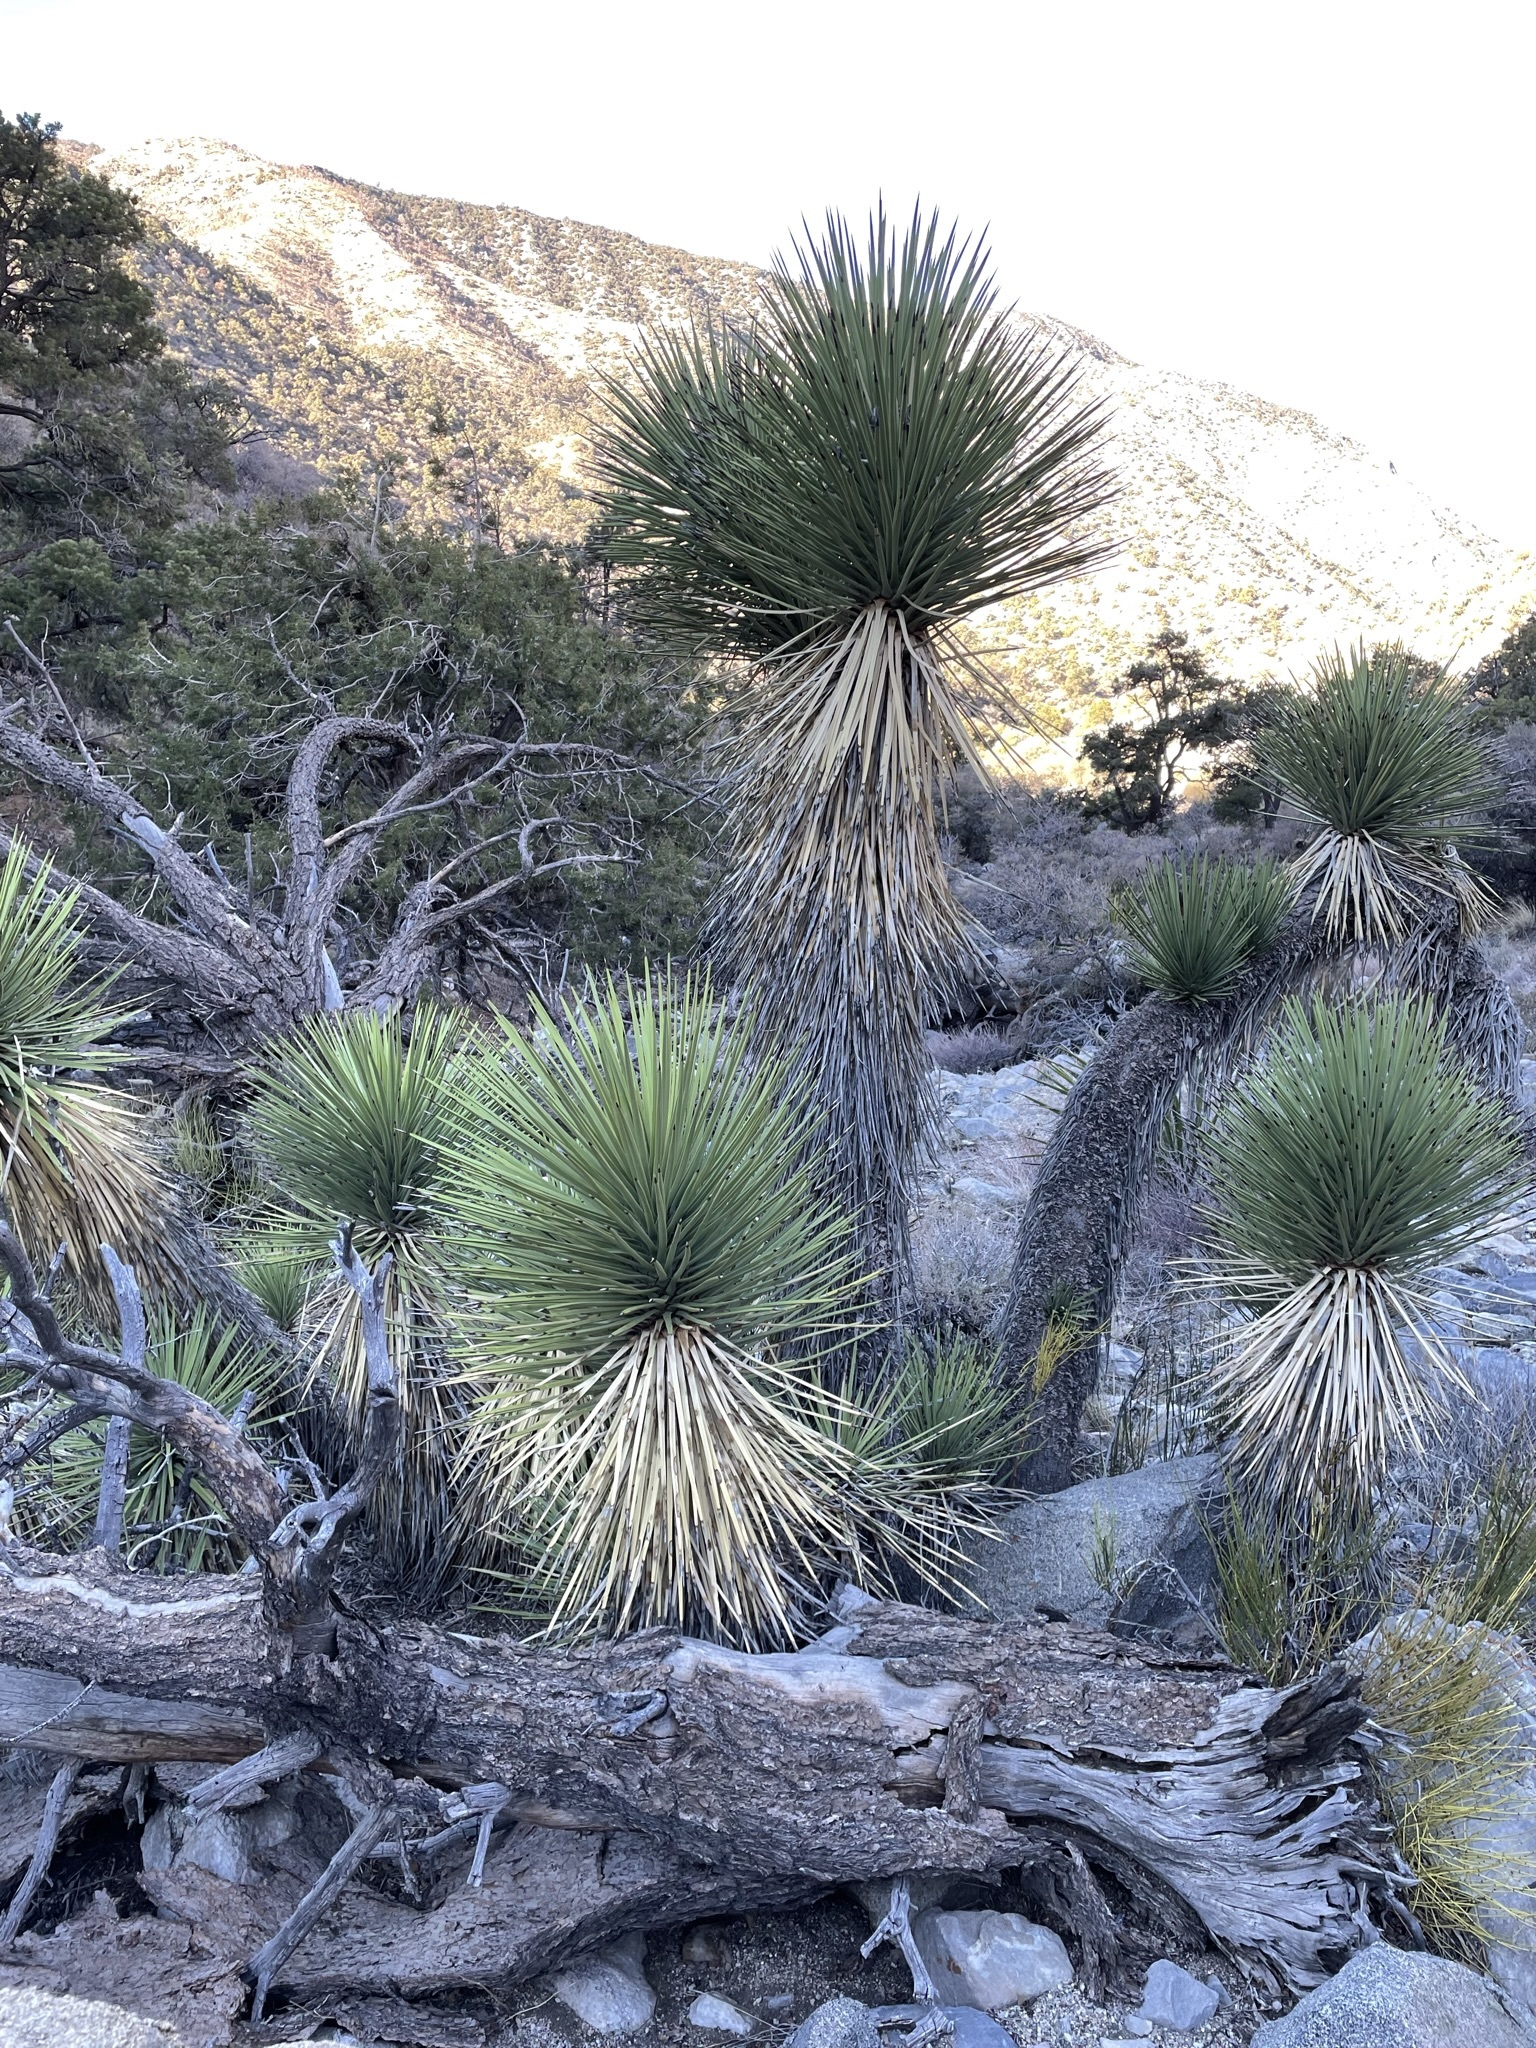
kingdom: Plantae
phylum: Tracheophyta
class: Liliopsida
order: Asparagales
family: Asparagaceae
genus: Yucca
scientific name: Yucca brevifolia
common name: Joshua tree
